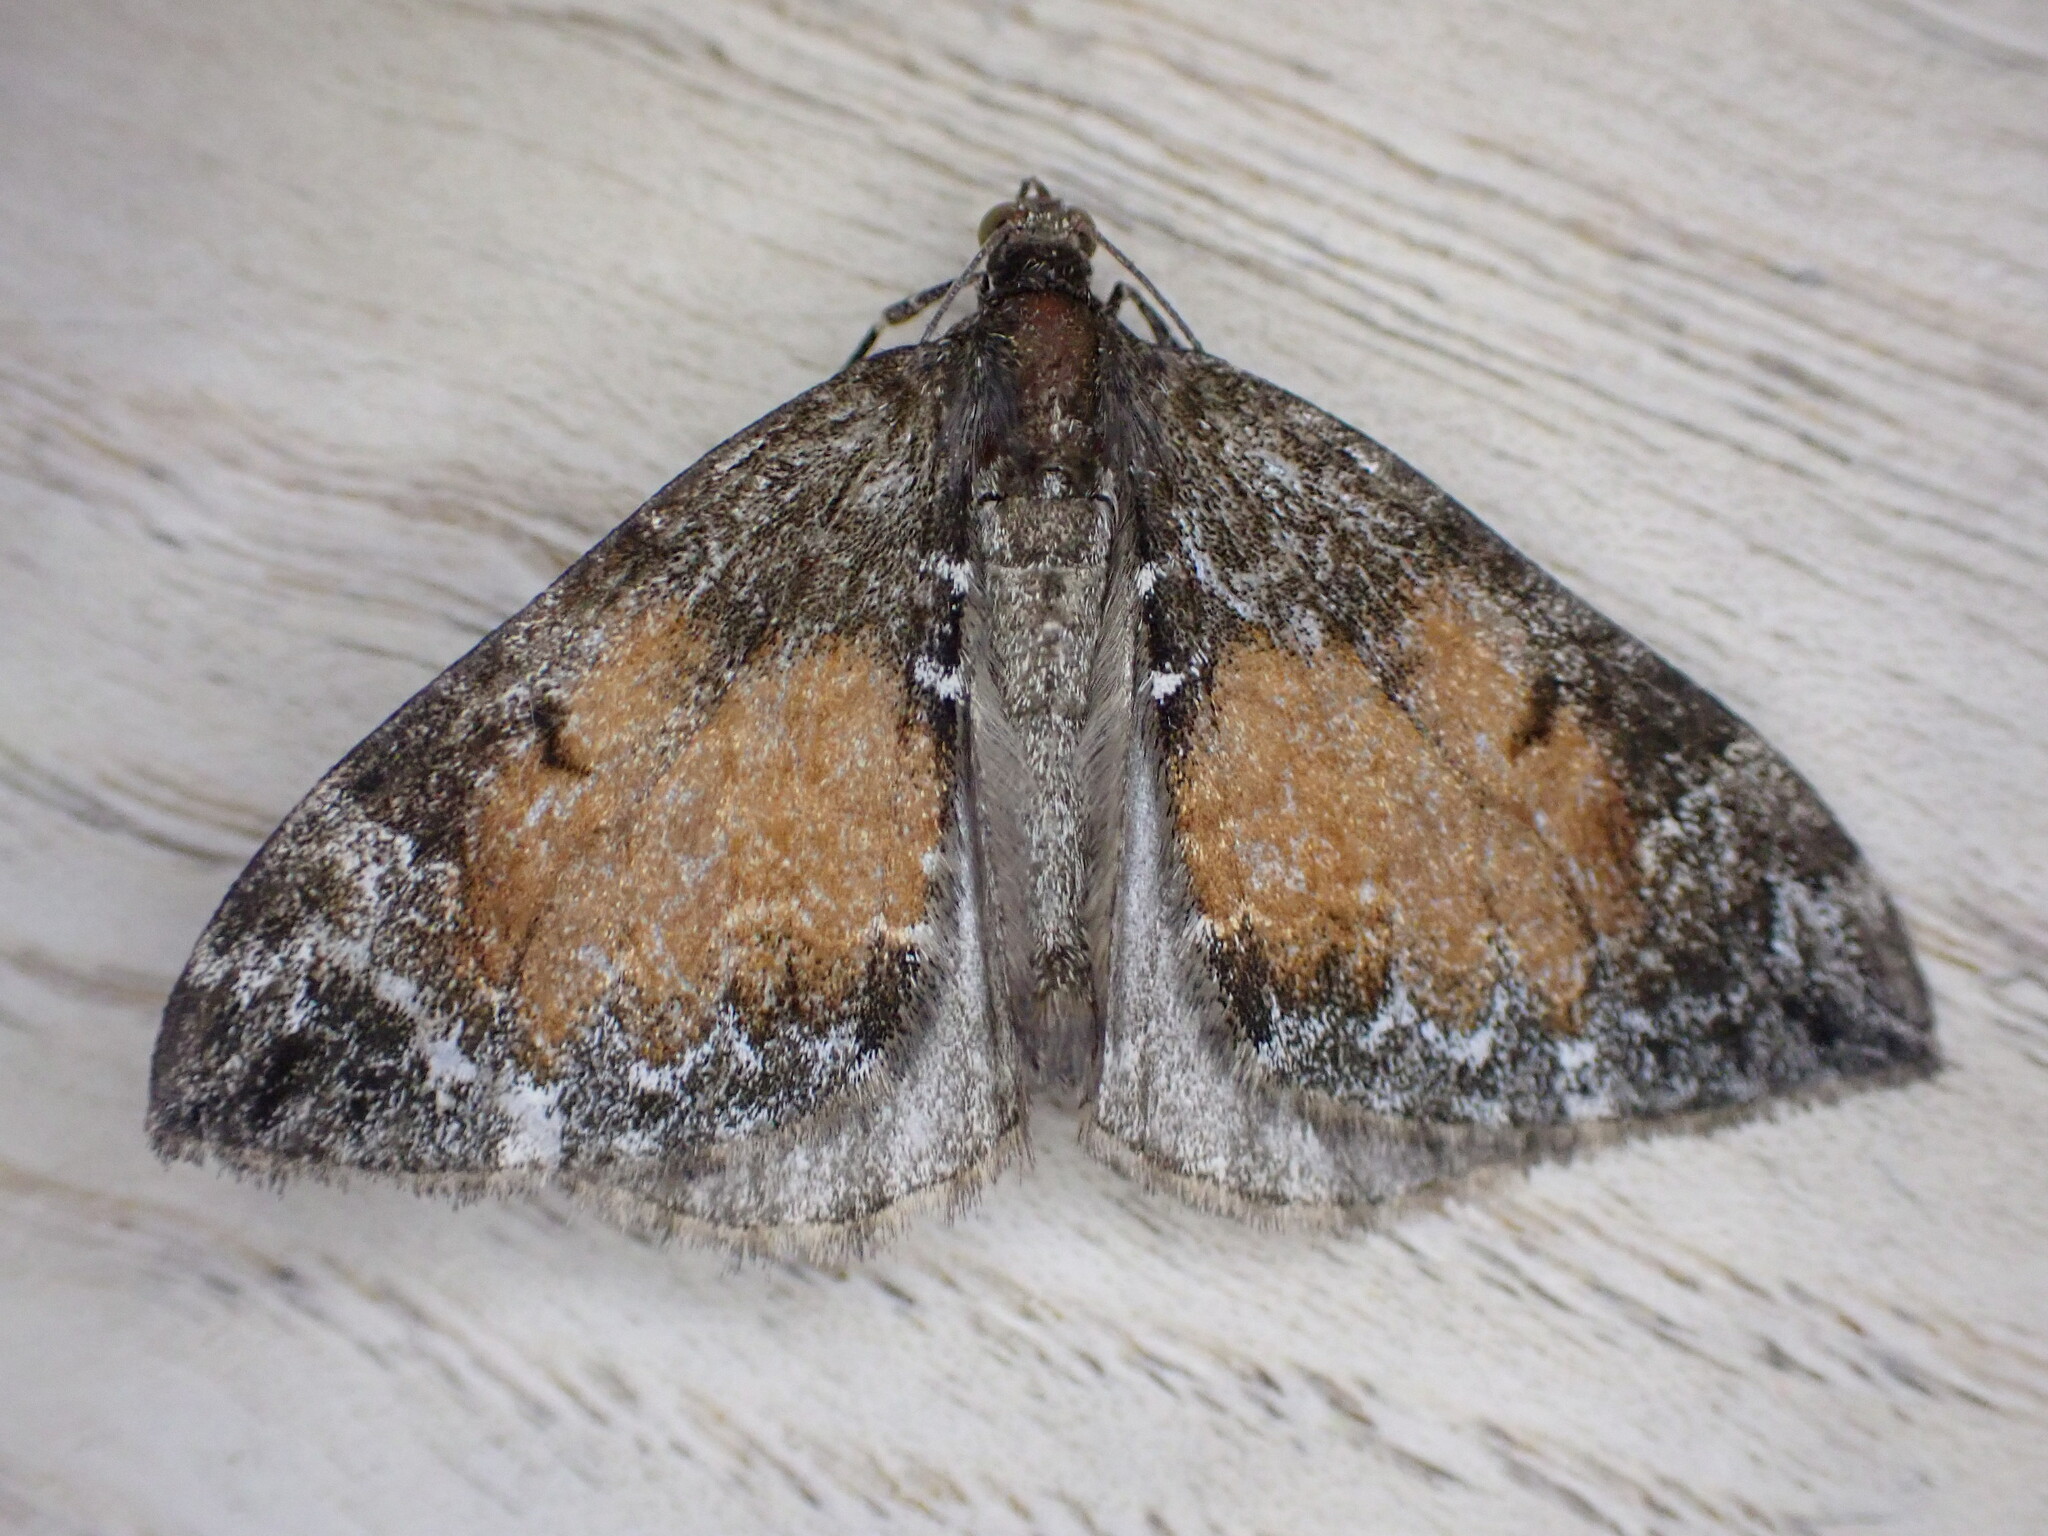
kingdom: Animalia
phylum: Arthropoda
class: Insecta
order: Lepidoptera
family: Geometridae
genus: Dysstroma
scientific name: Dysstroma truncata
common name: Common marbled carpet
